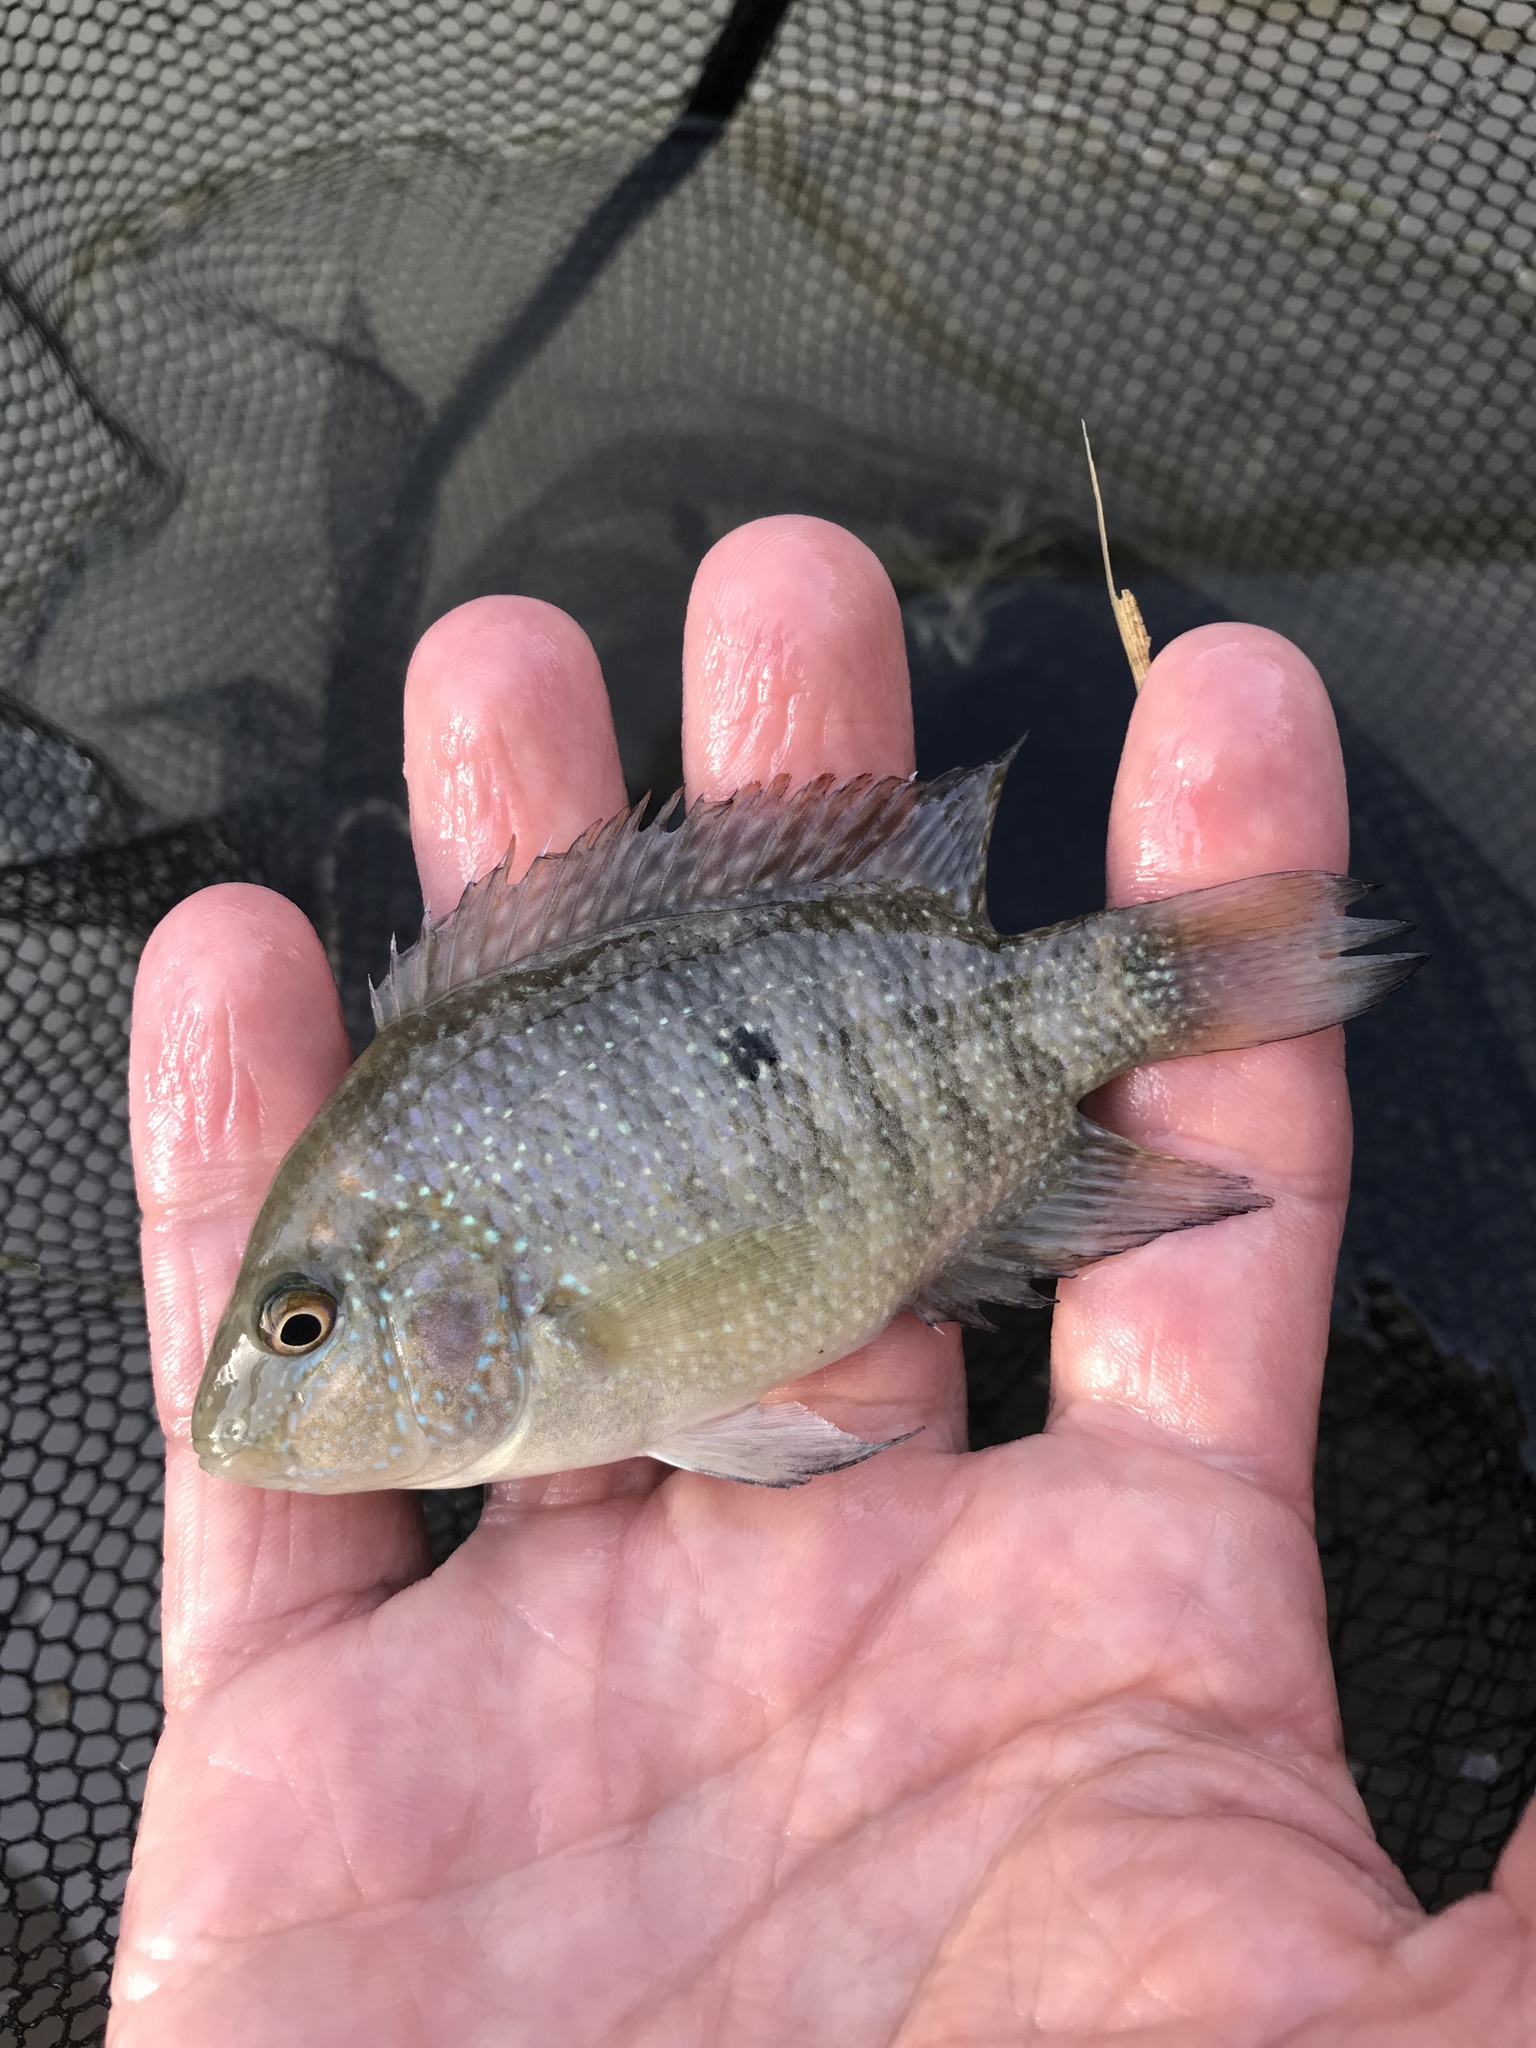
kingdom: Animalia
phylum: Chordata
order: Perciformes
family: Cichlidae
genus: Herichthys
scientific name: Herichthys cyanoguttatus
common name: Rio grande cichlid
